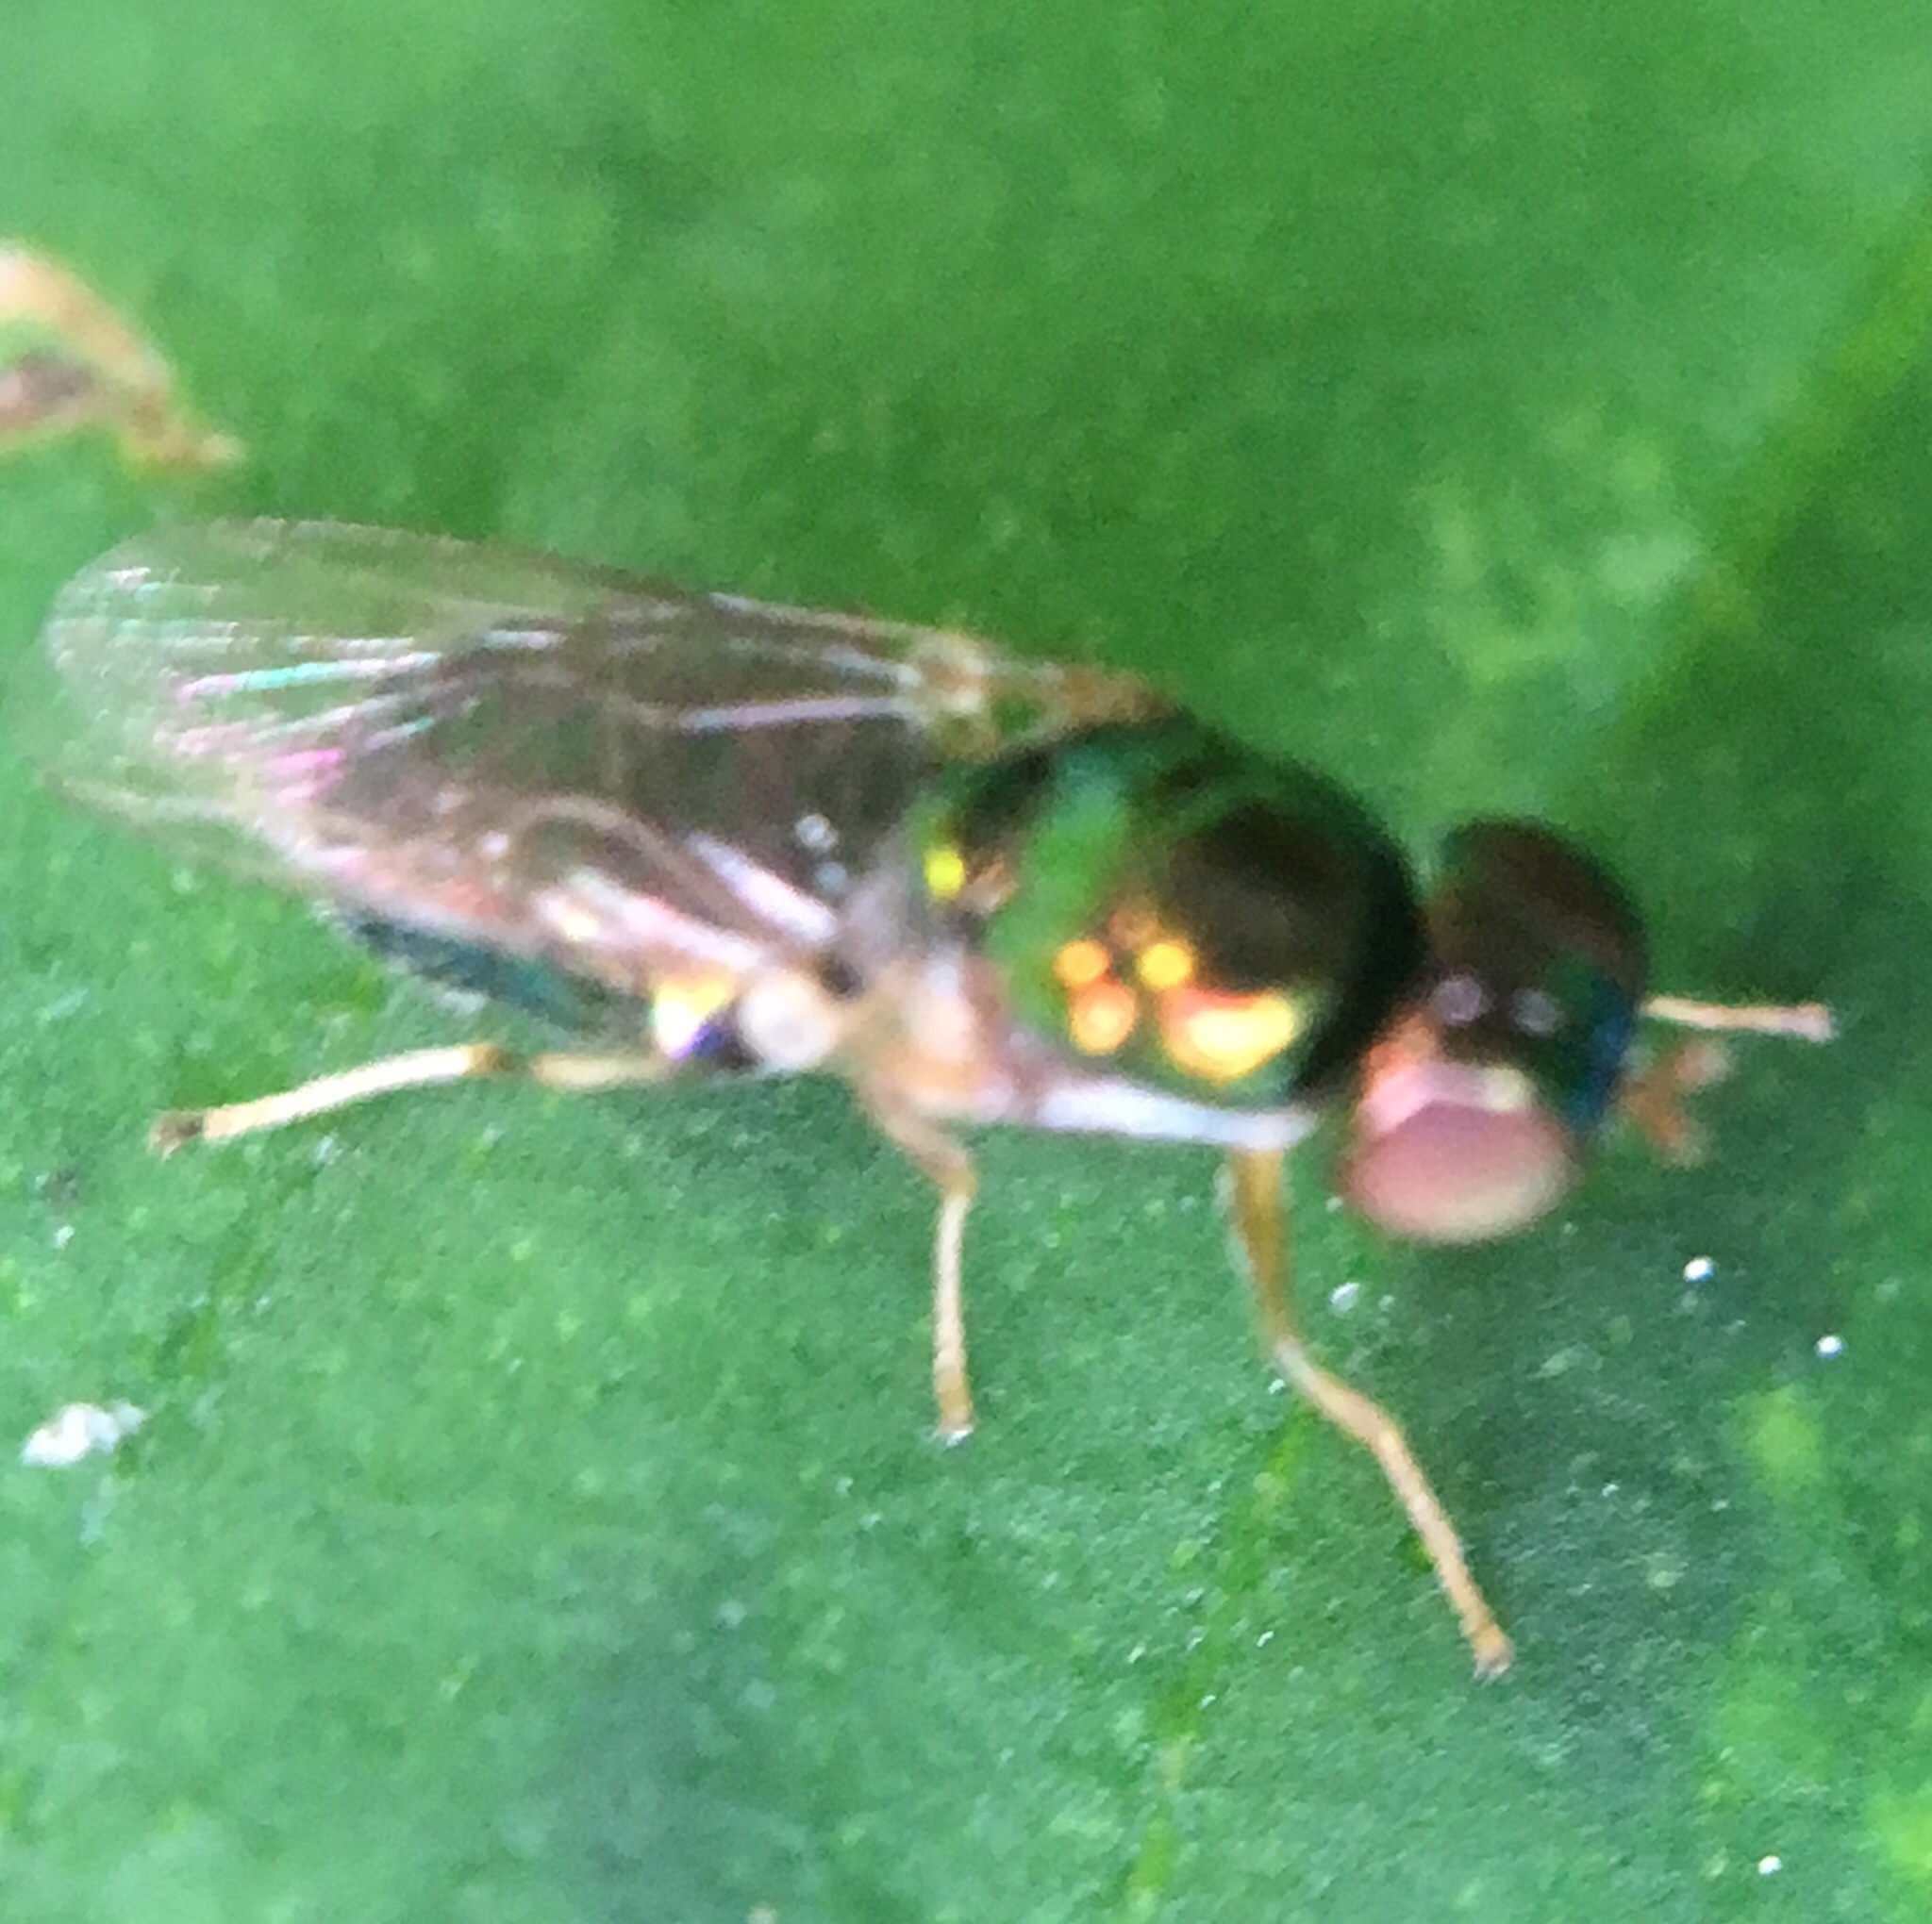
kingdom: Animalia
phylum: Arthropoda
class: Insecta
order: Diptera
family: Stratiomyidae
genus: Microchrysa
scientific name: Microchrysa flaviventris
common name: Soldier fly
